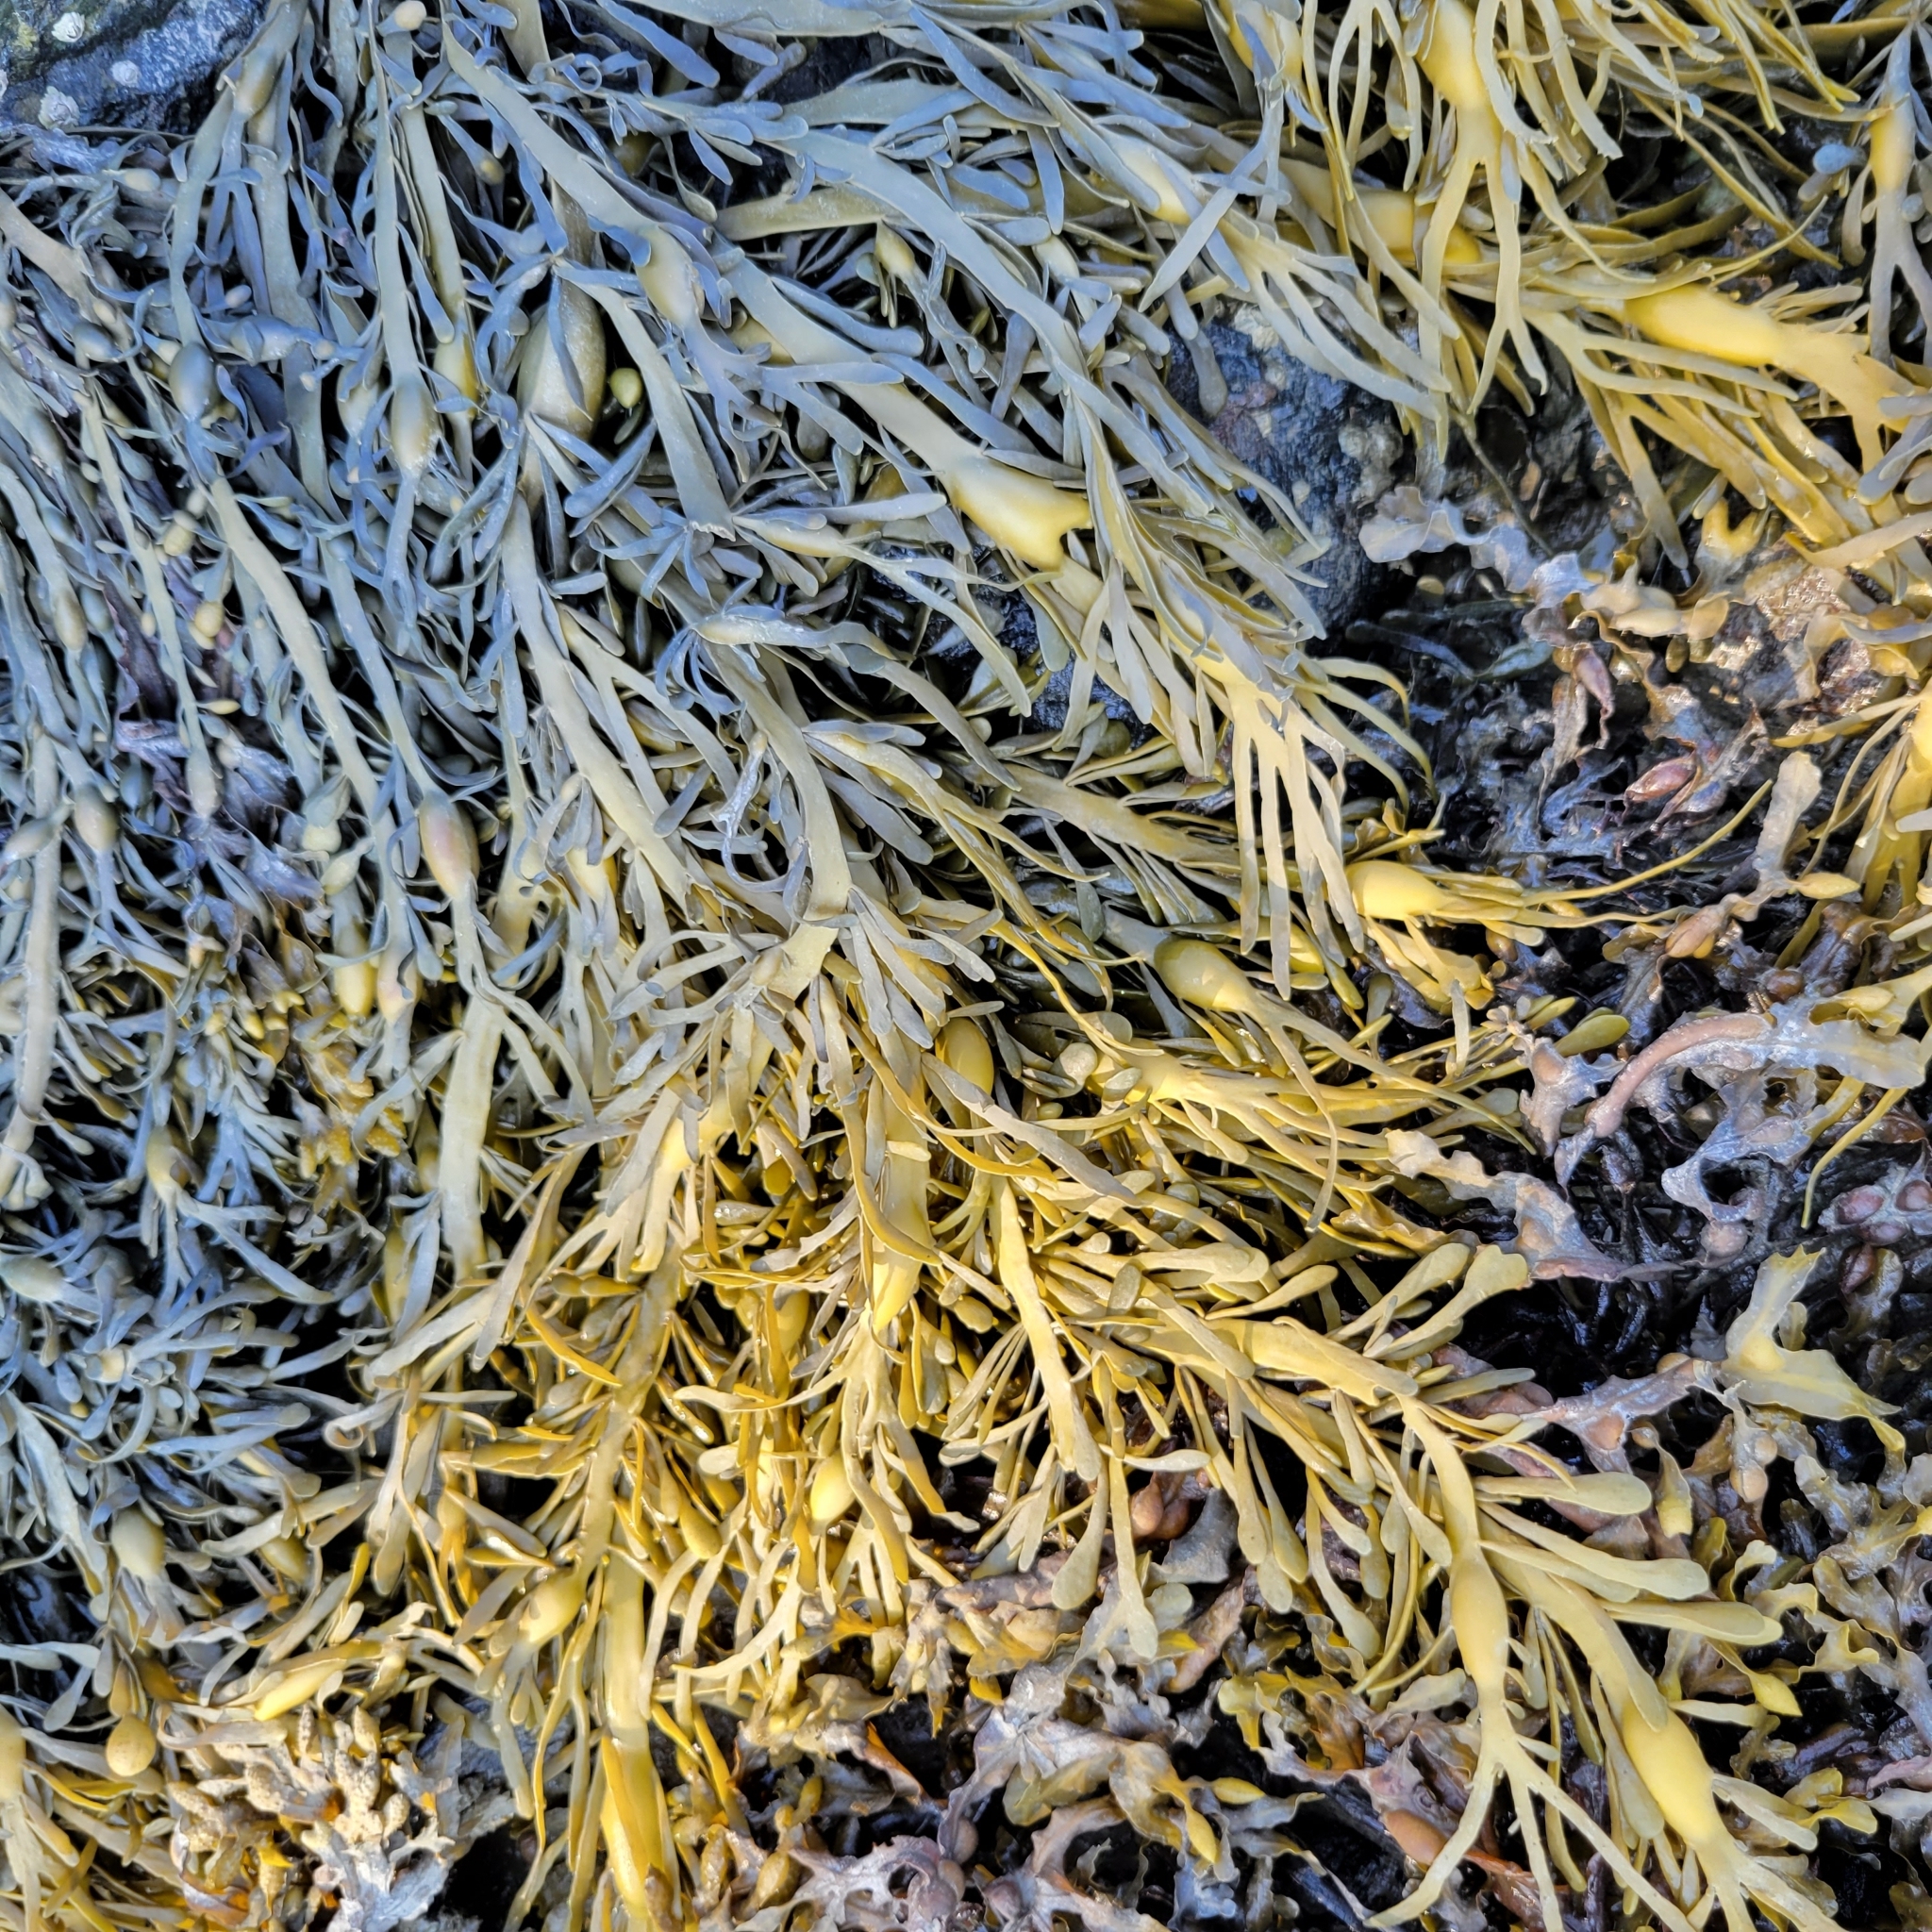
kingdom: Chromista
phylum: Ochrophyta
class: Phaeophyceae
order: Fucales
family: Fucaceae
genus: Ascophyllum
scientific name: Ascophyllum nodosum
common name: Knotted wrack
